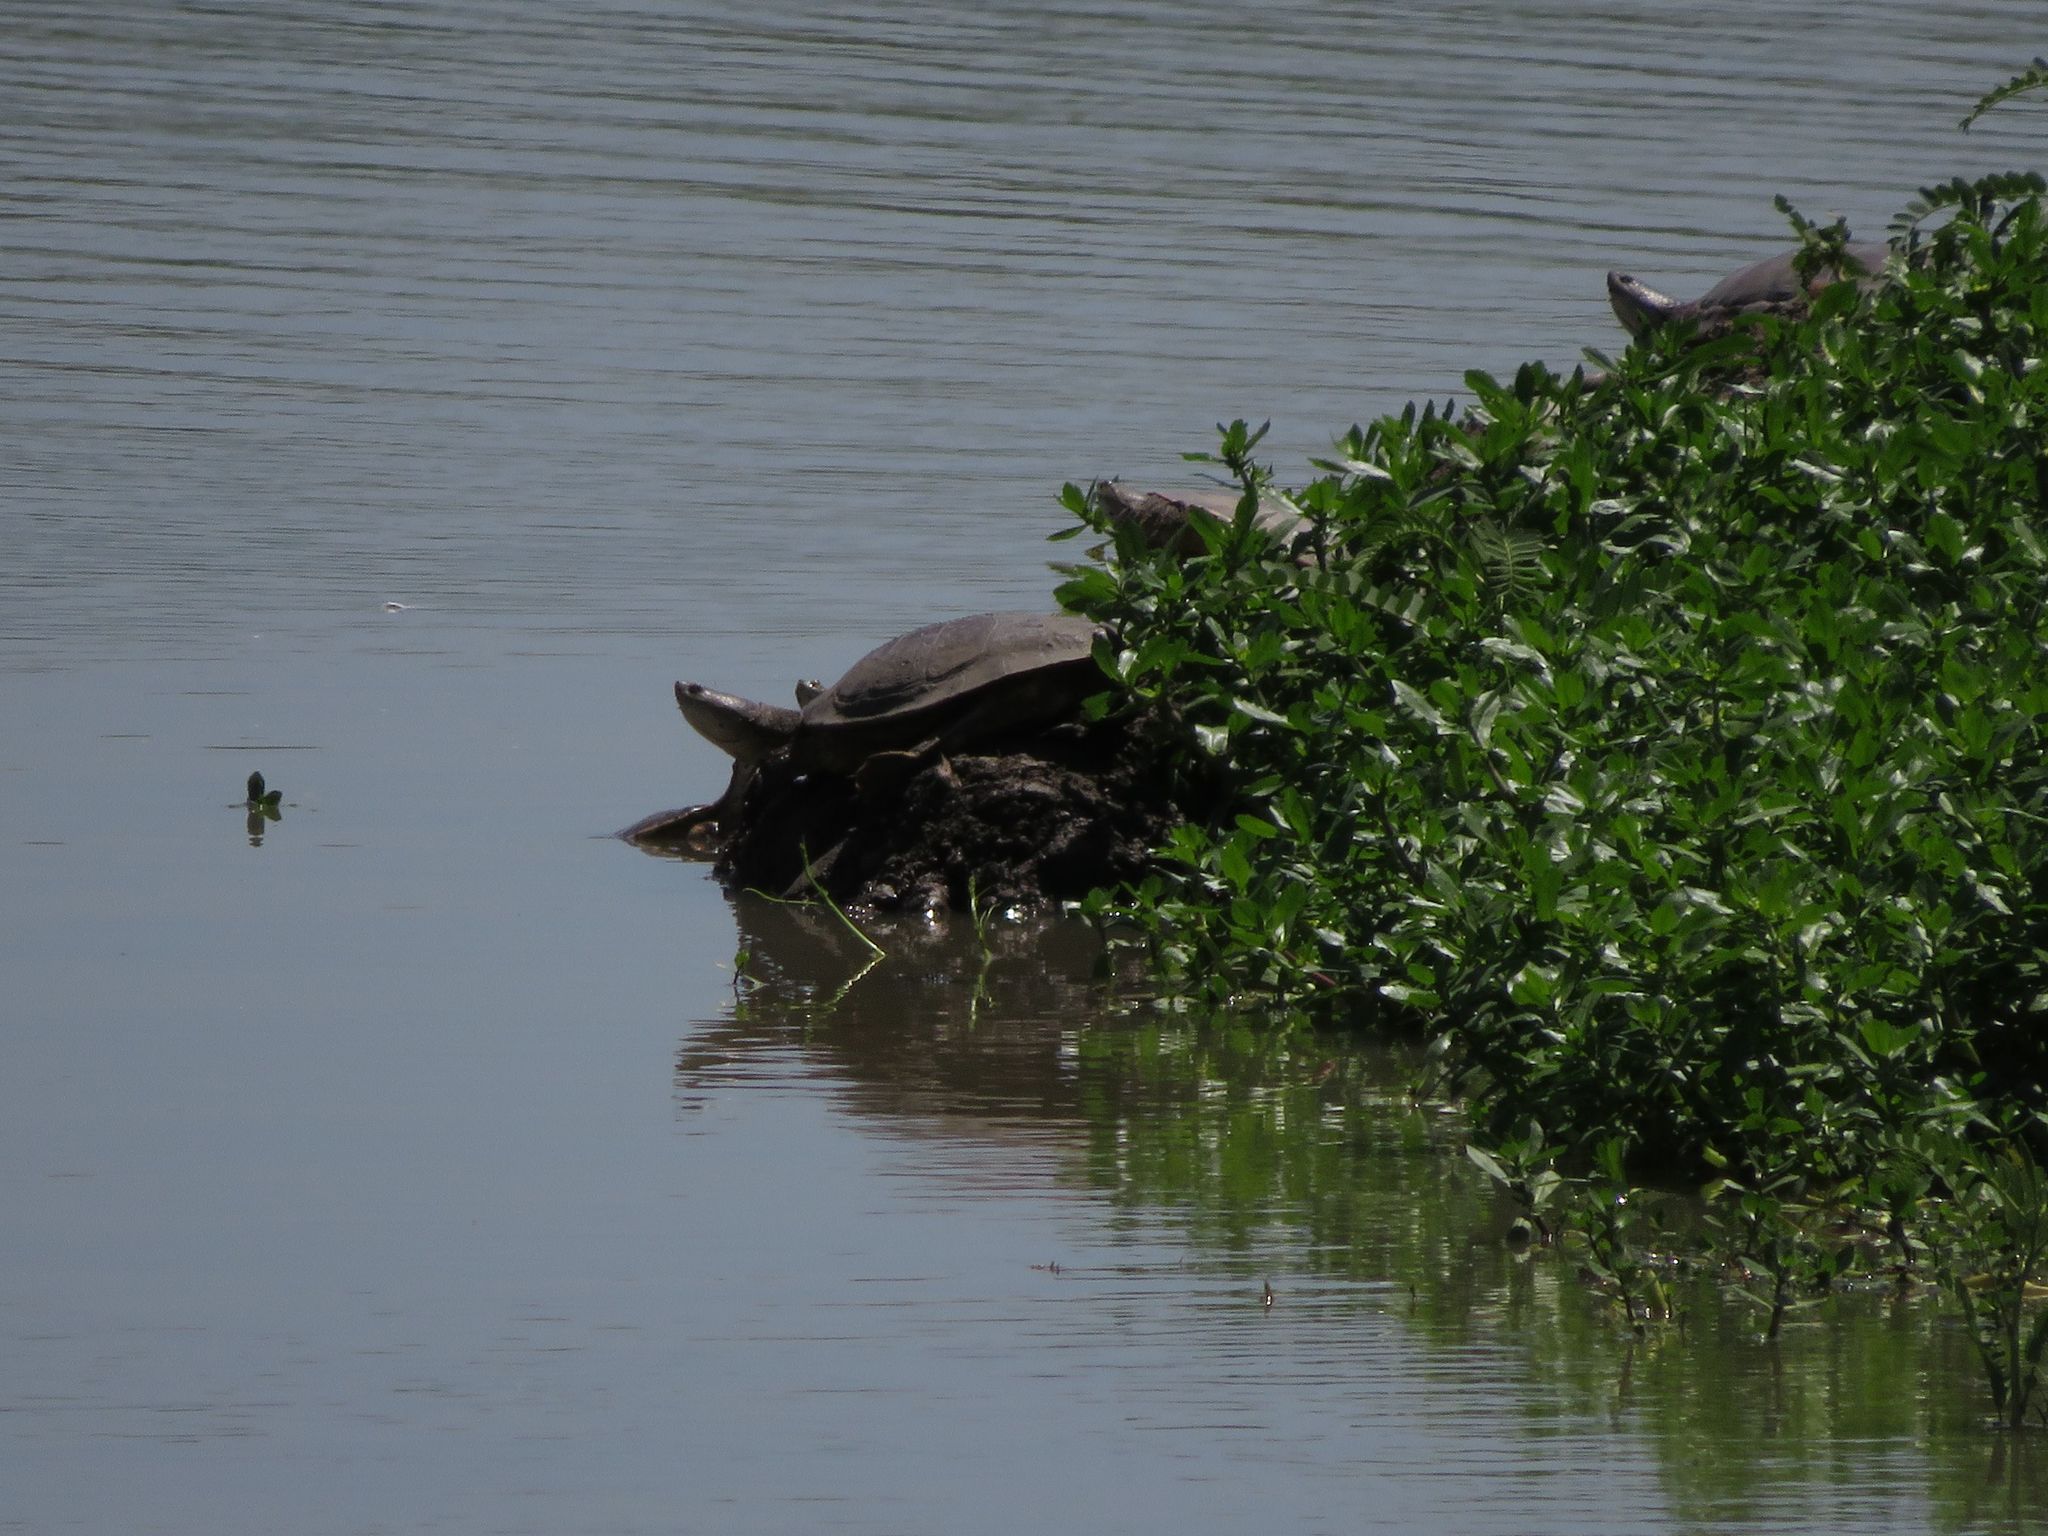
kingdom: Animalia
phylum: Chordata
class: Testudines
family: Chelidae
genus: Phrynops
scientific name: Phrynops hilarii
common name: Side-necked turtle of saint hillaire
